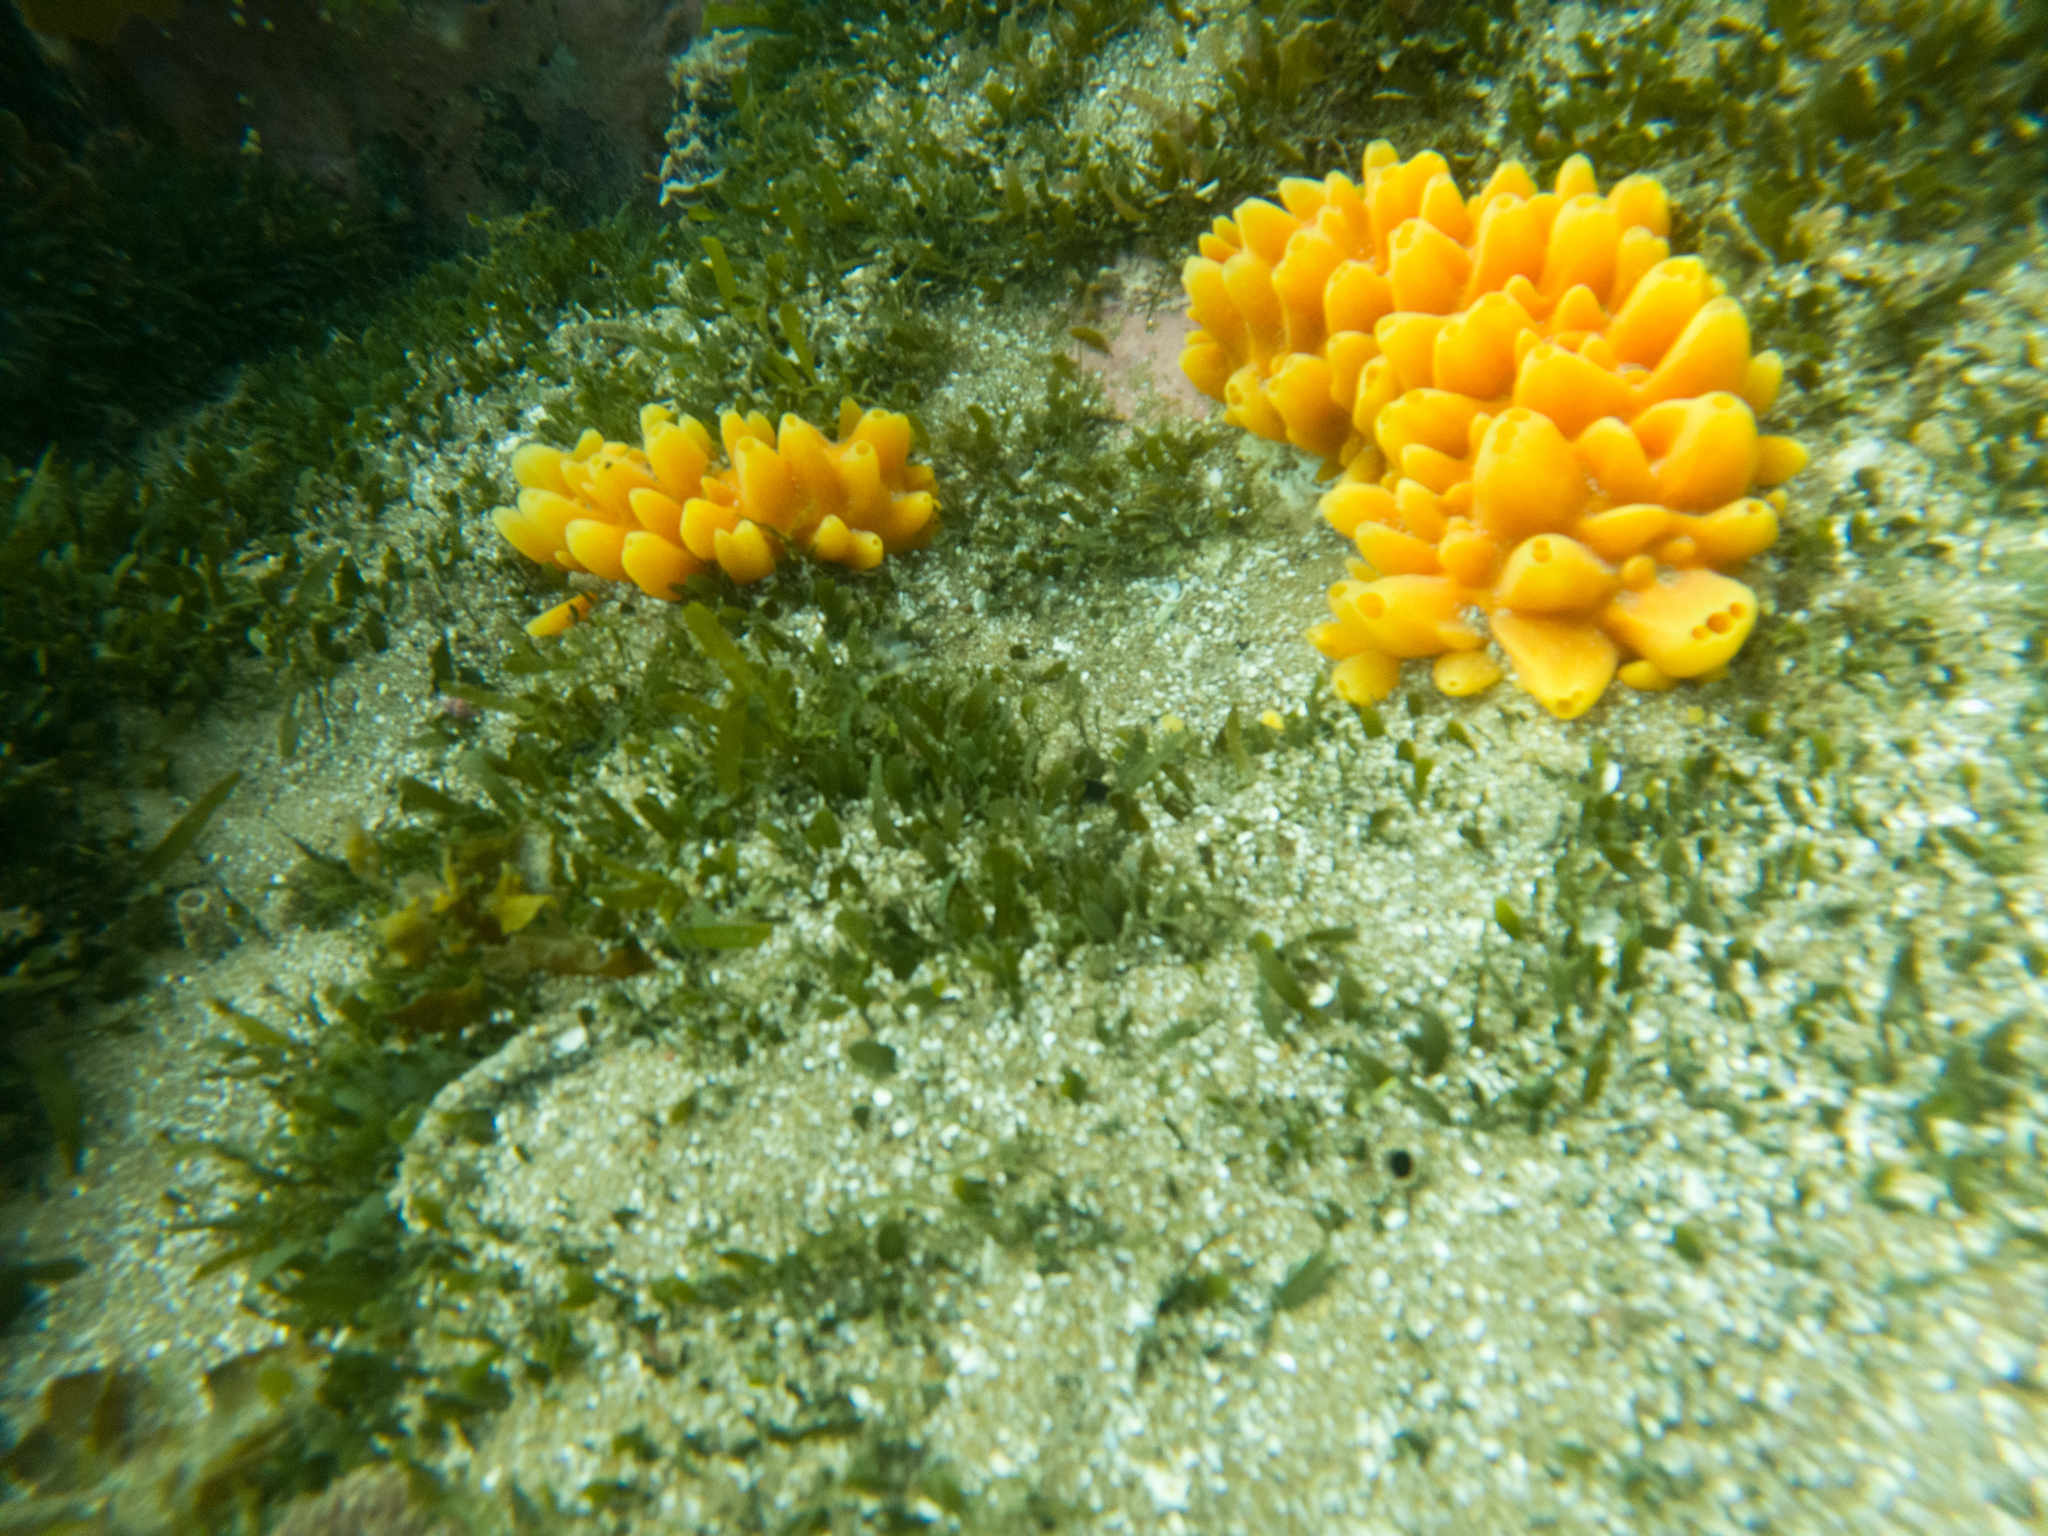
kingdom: Animalia
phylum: Porifera
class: Demospongiae
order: Polymastiida
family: Polymastiidae
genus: Polymastia
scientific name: Polymastia crocea
